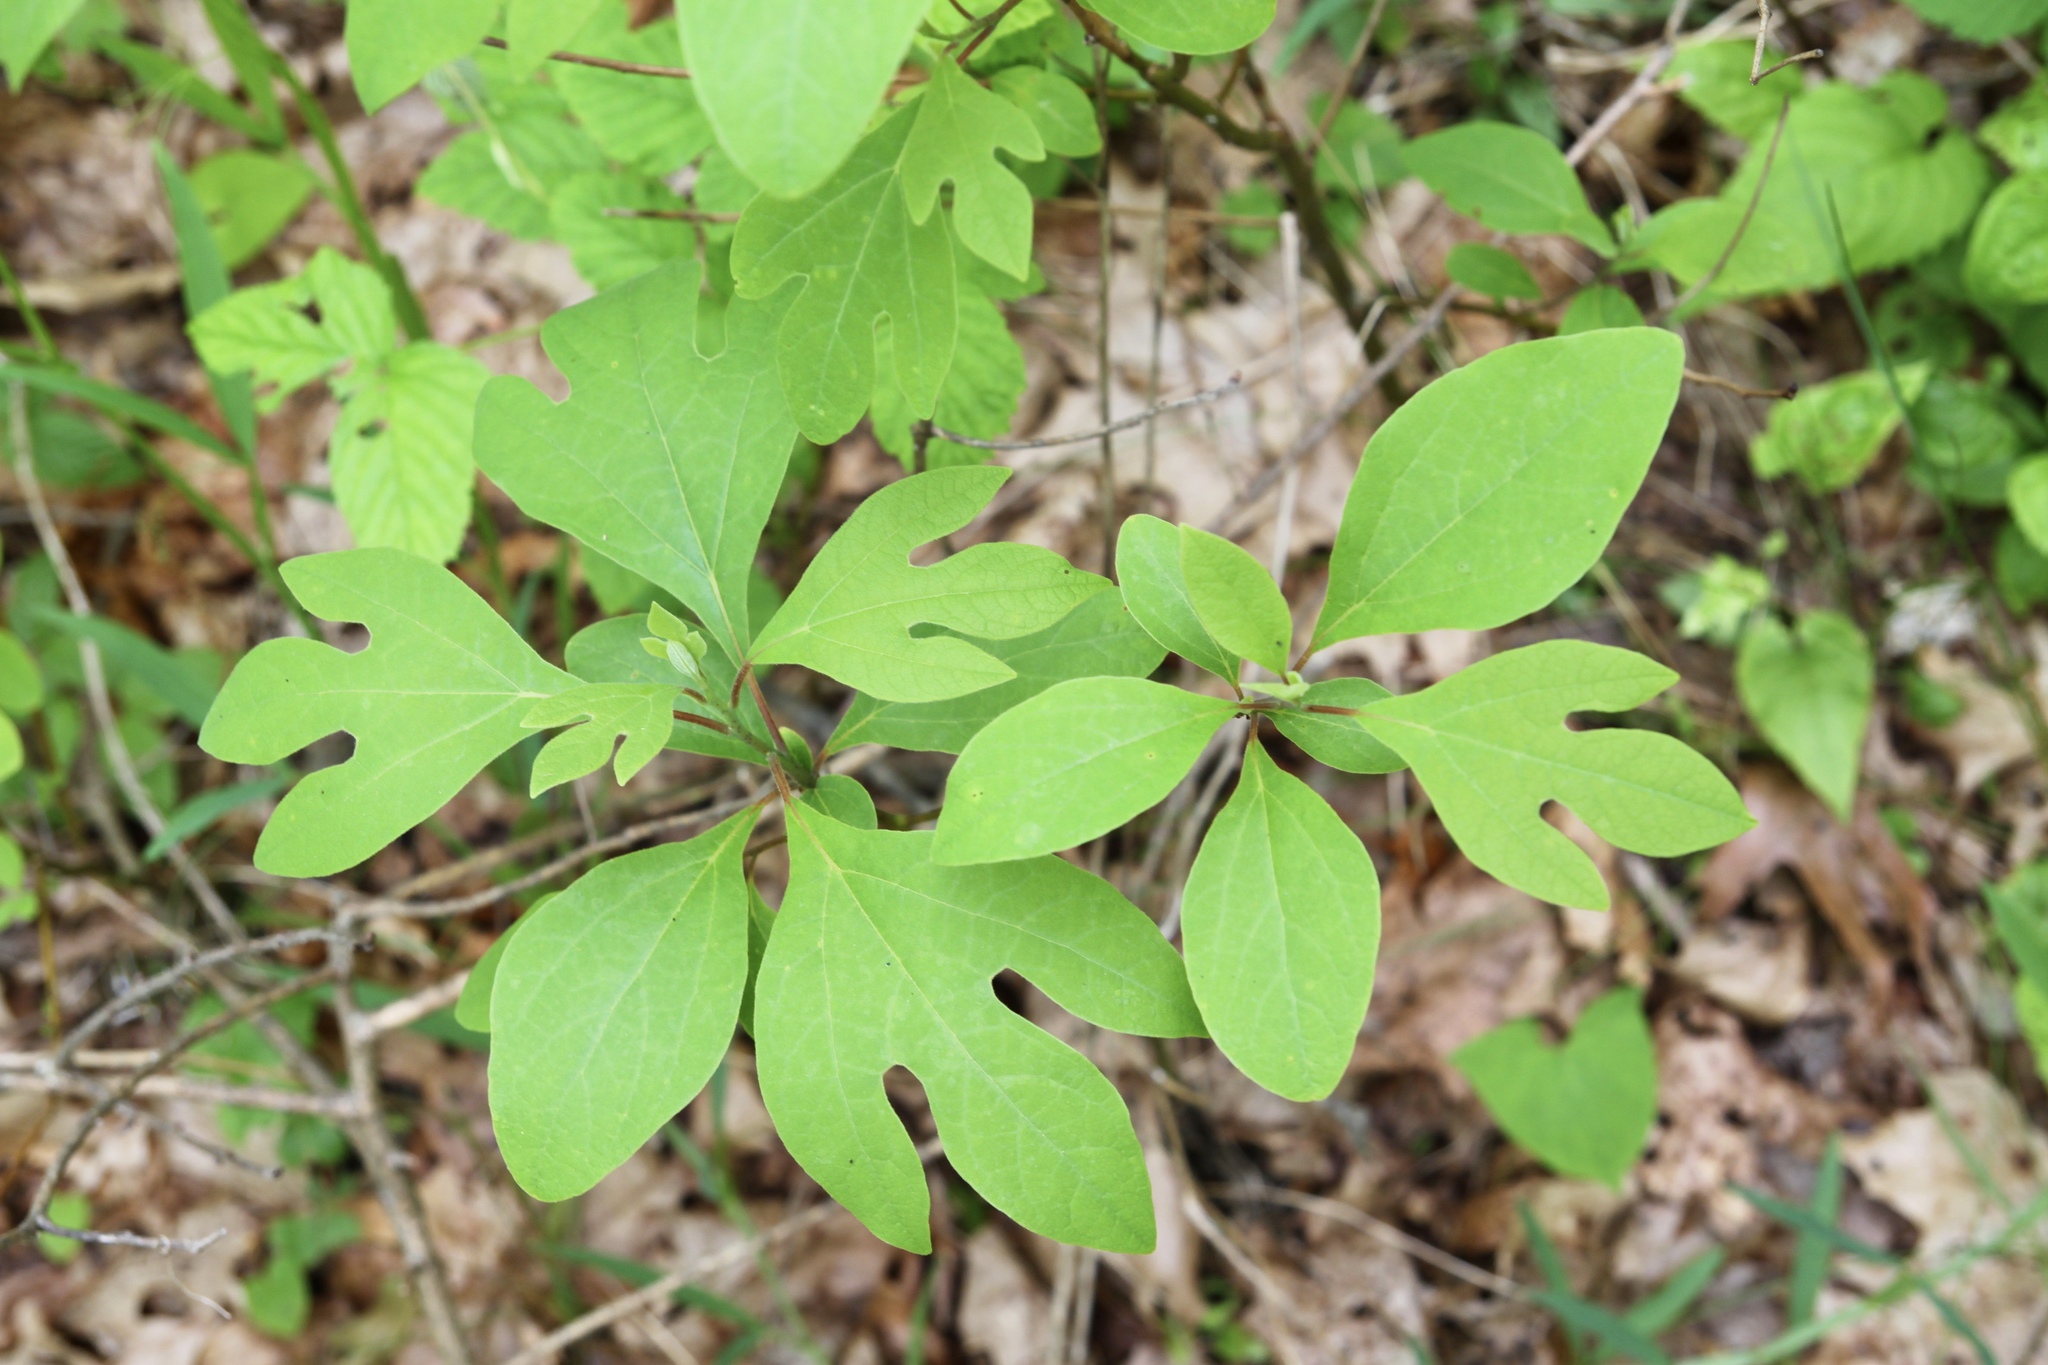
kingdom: Plantae
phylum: Tracheophyta
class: Magnoliopsida
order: Laurales
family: Lauraceae
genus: Sassafras
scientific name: Sassafras albidum
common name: Sassafras
